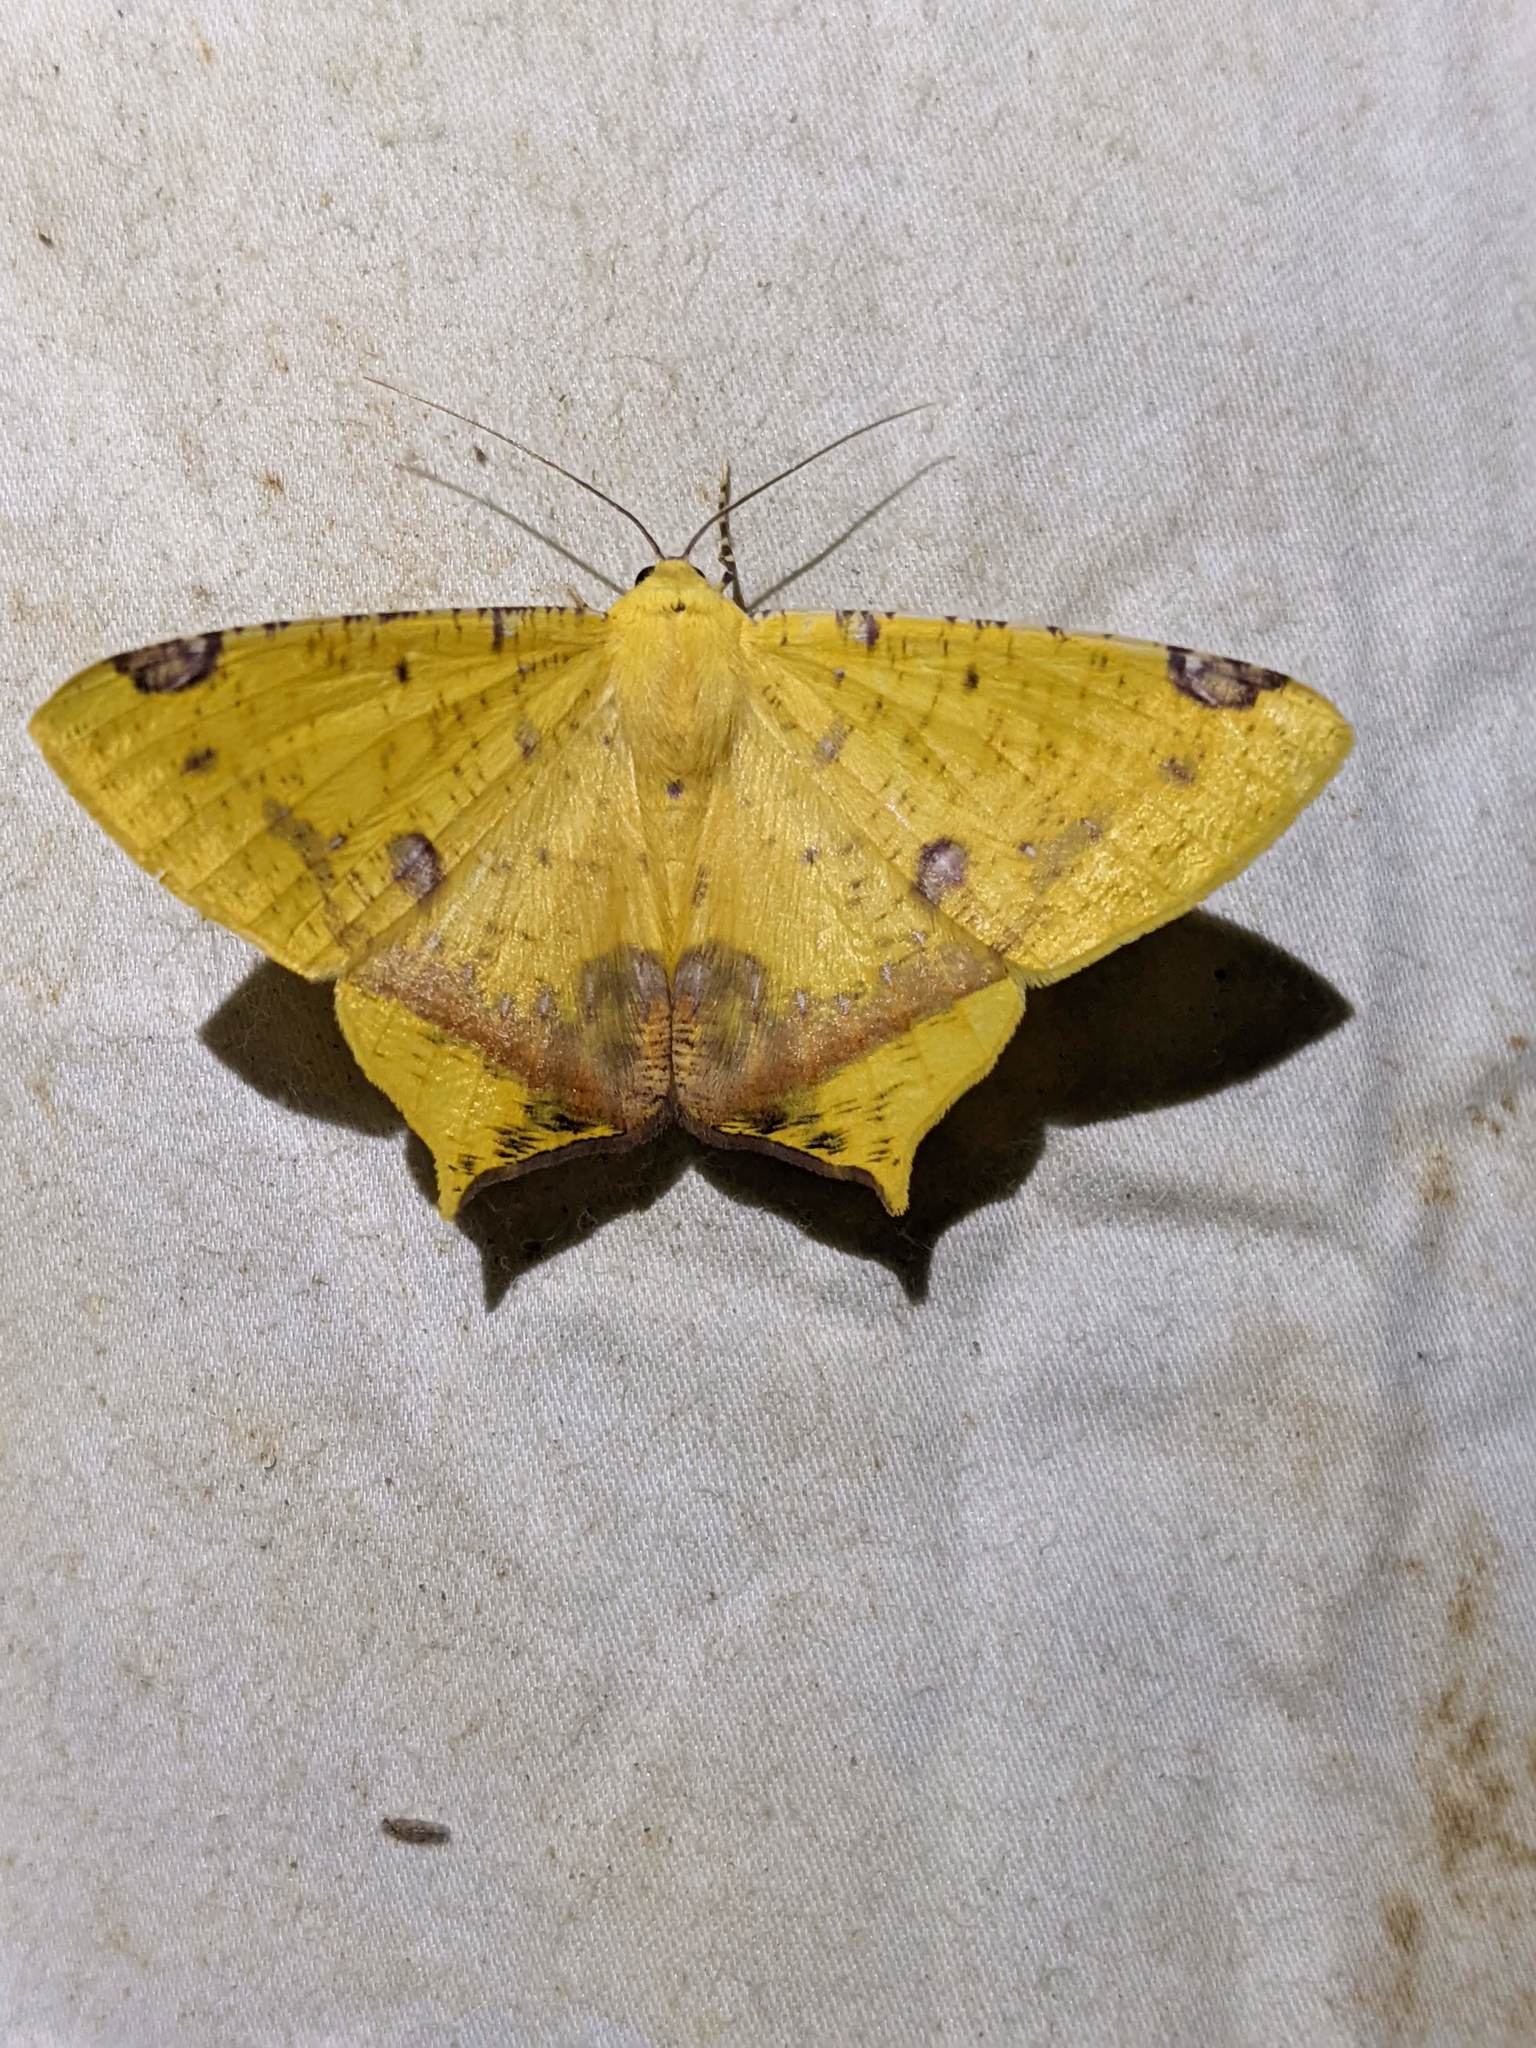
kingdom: Animalia
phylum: Arthropoda
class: Insecta
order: Lepidoptera
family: Geometridae
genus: Nepheloleuca
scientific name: Nepheloleuca politia
